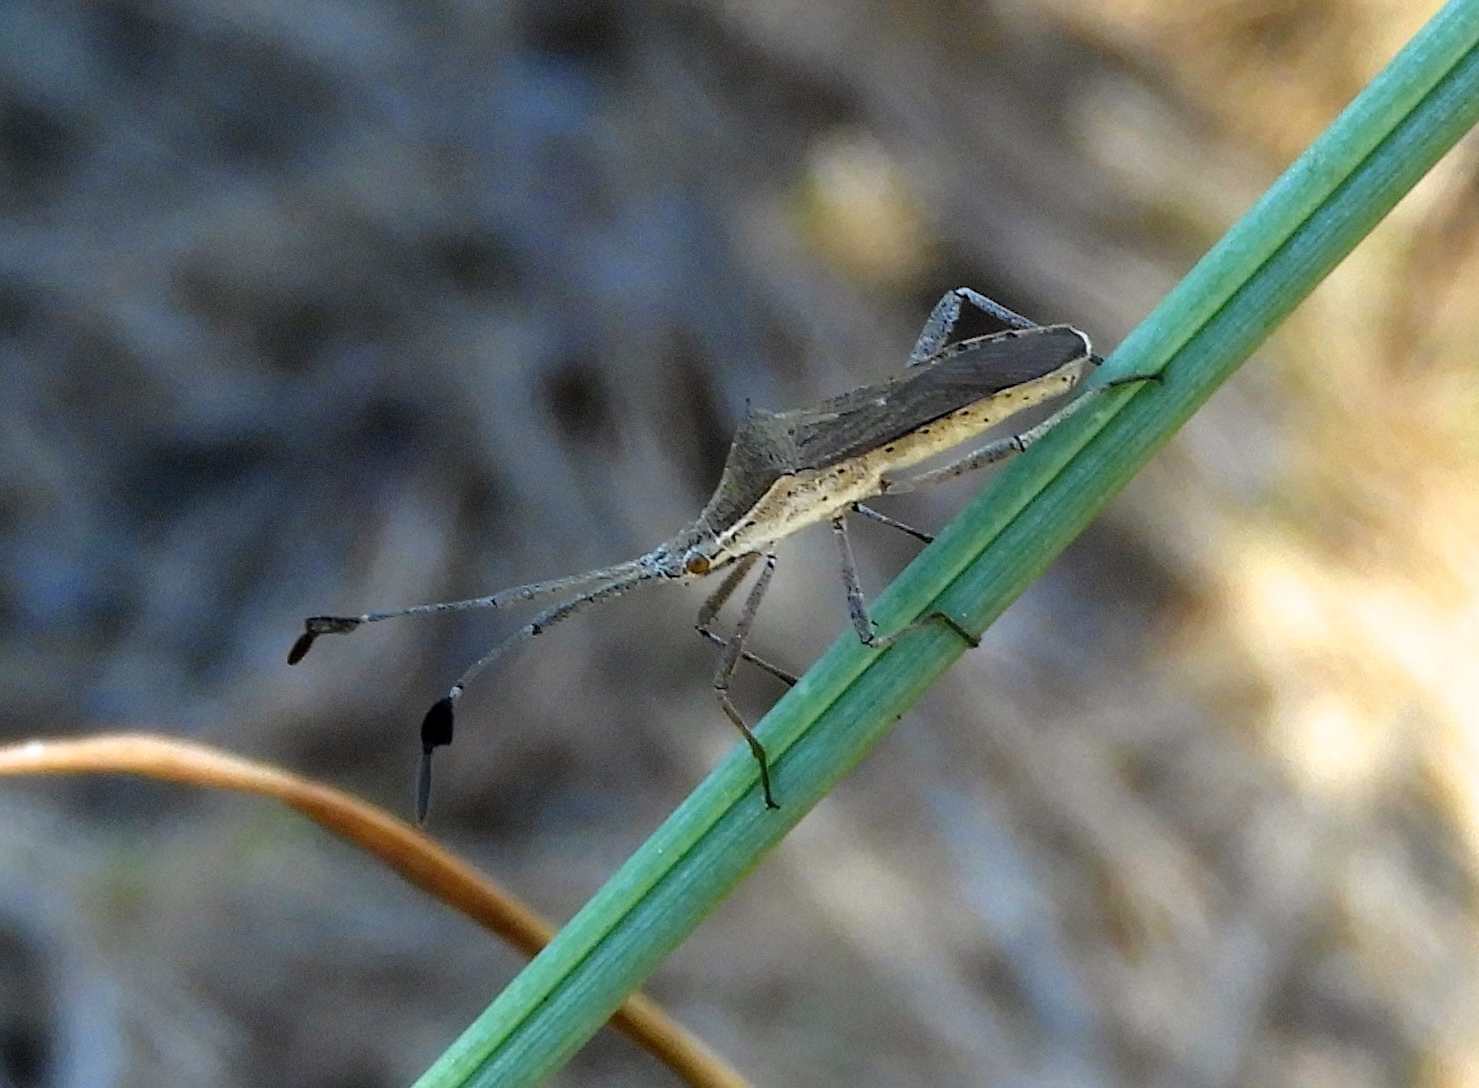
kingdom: Animalia
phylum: Arthropoda
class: Insecta
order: Hemiptera
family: Coreidae
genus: Chariesterus
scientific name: Chariesterus
